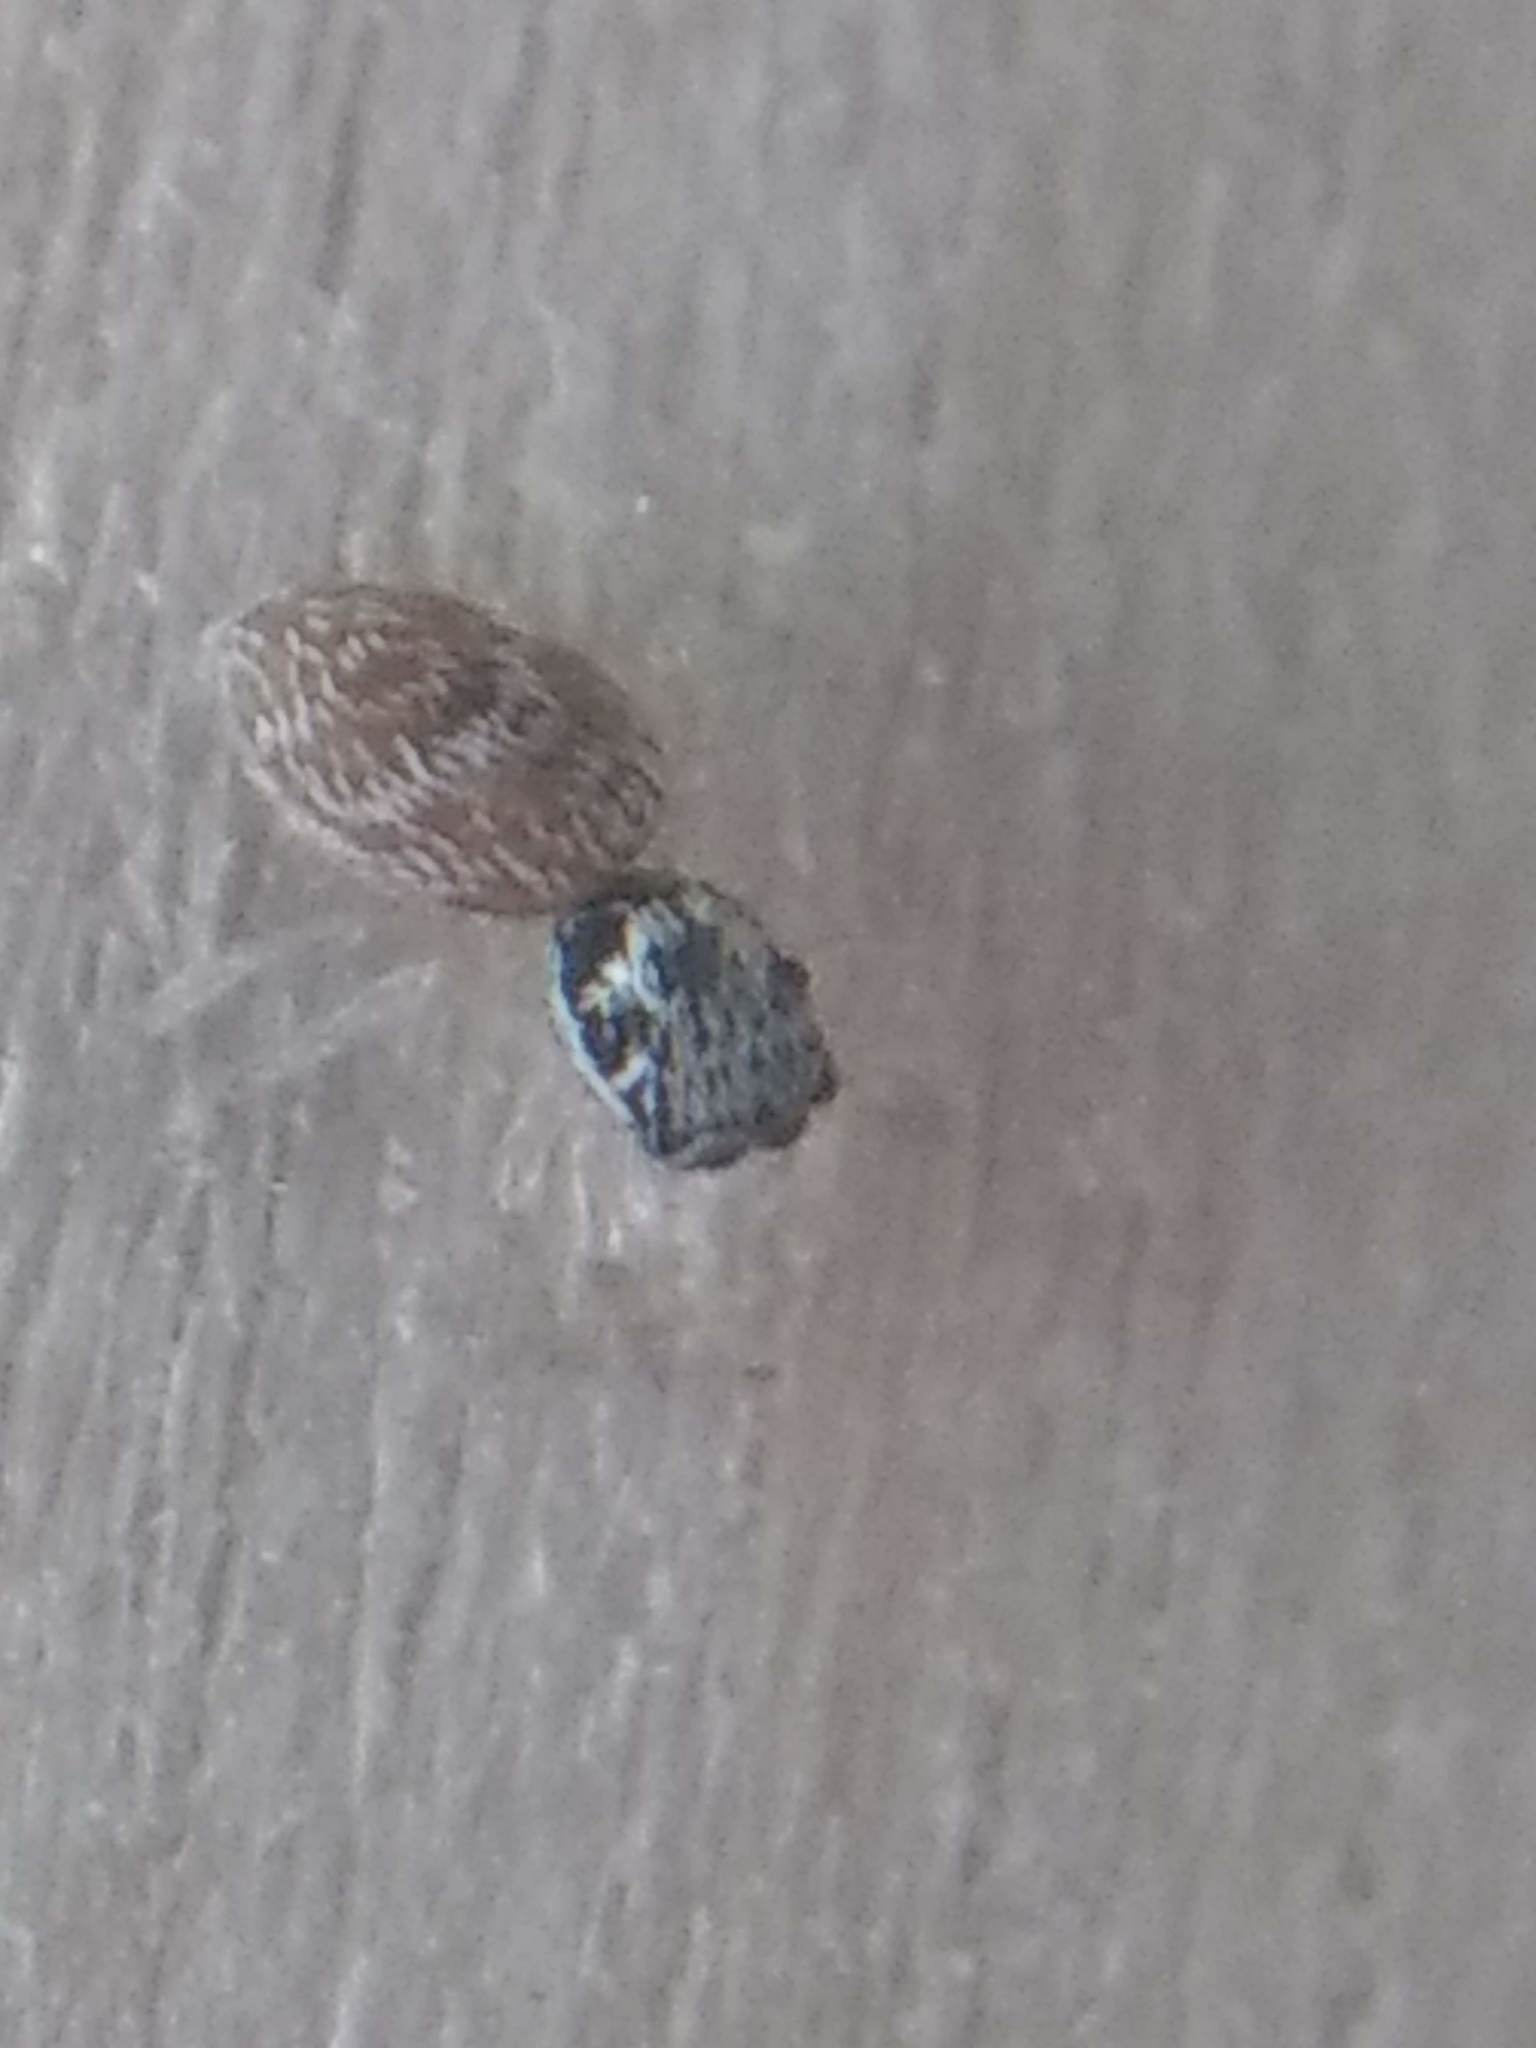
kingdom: Animalia
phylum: Arthropoda
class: Arachnida
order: Araneae
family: Salticidae
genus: Salticus
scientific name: Salticus scenicus
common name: Zebra jumper
